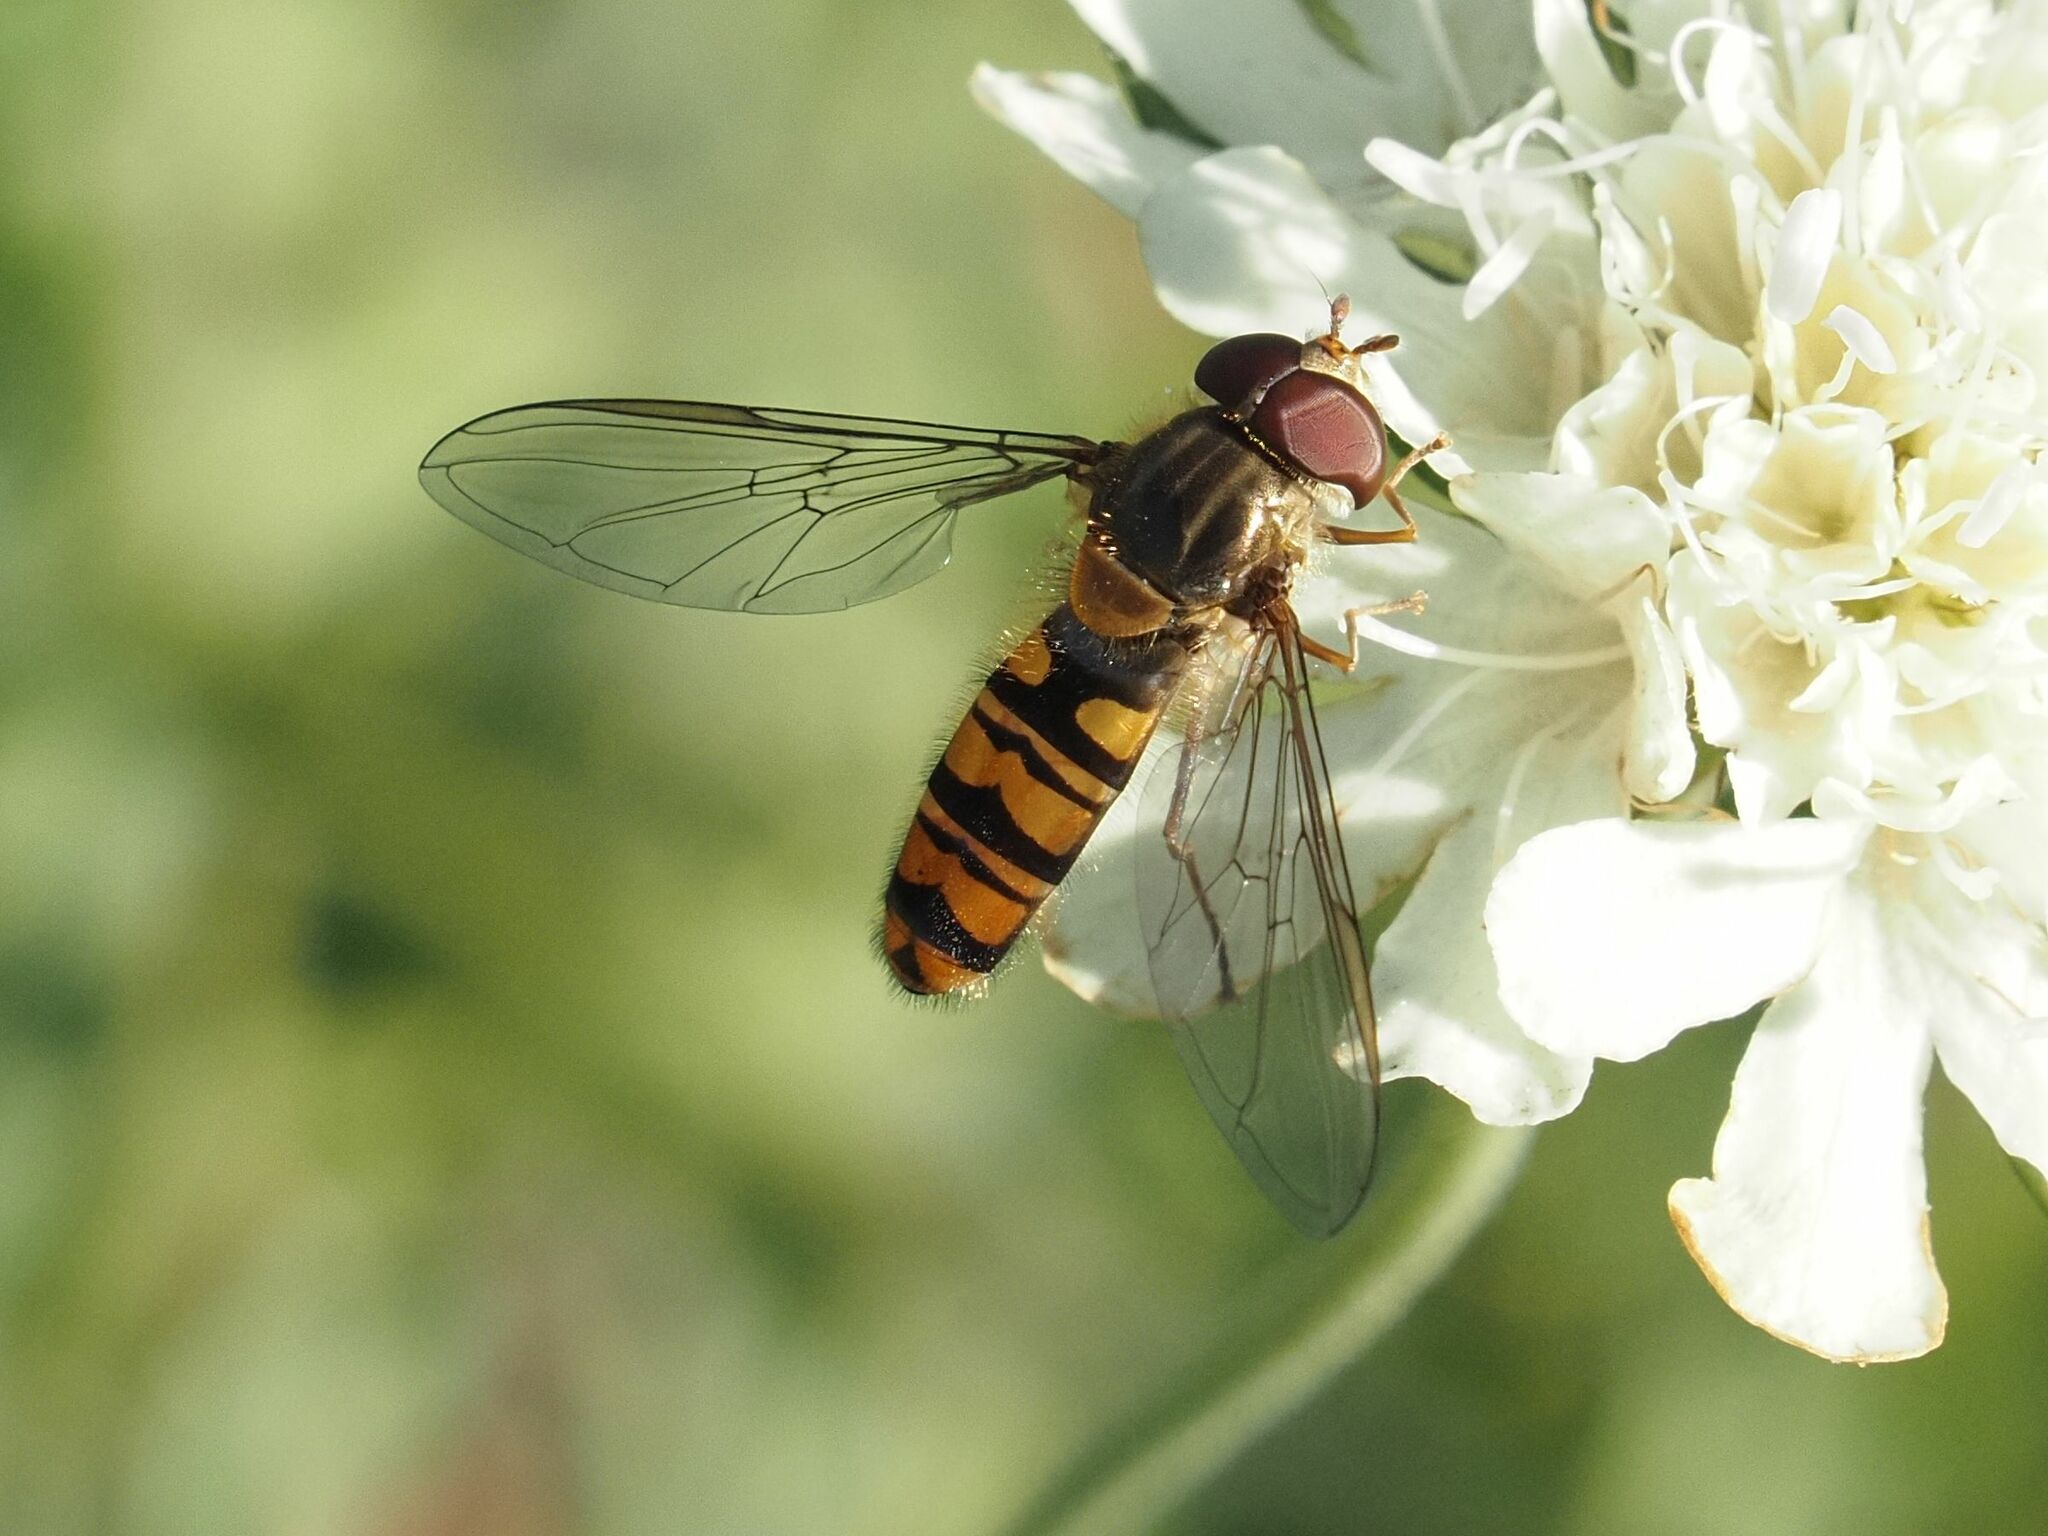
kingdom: Animalia
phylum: Arthropoda
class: Insecta
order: Diptera
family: Syrphidae
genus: Episyrphus
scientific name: Episyrphus balteatus
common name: Marmalade hoverfly
